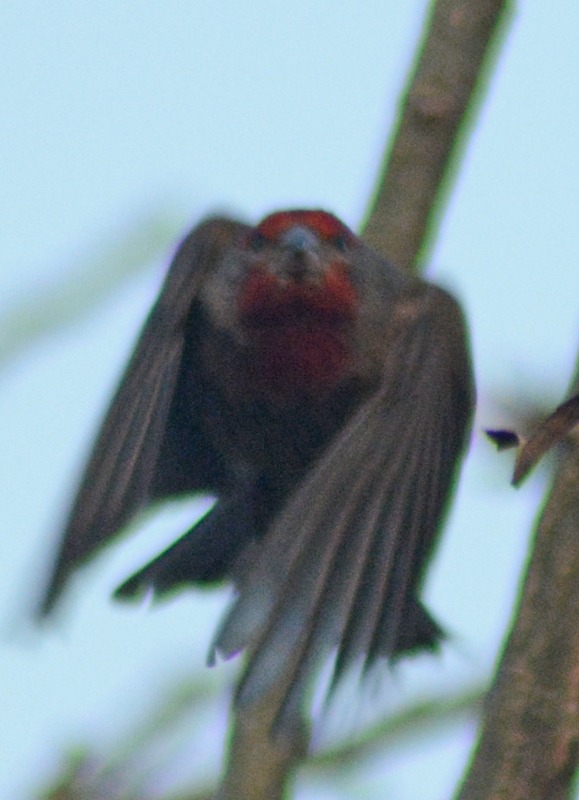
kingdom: Animalia
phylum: Chordata
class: Aves
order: Passeriformes
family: Fringillidae
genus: Haemorhous
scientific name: Haemorhous mexicanus
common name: House finch
